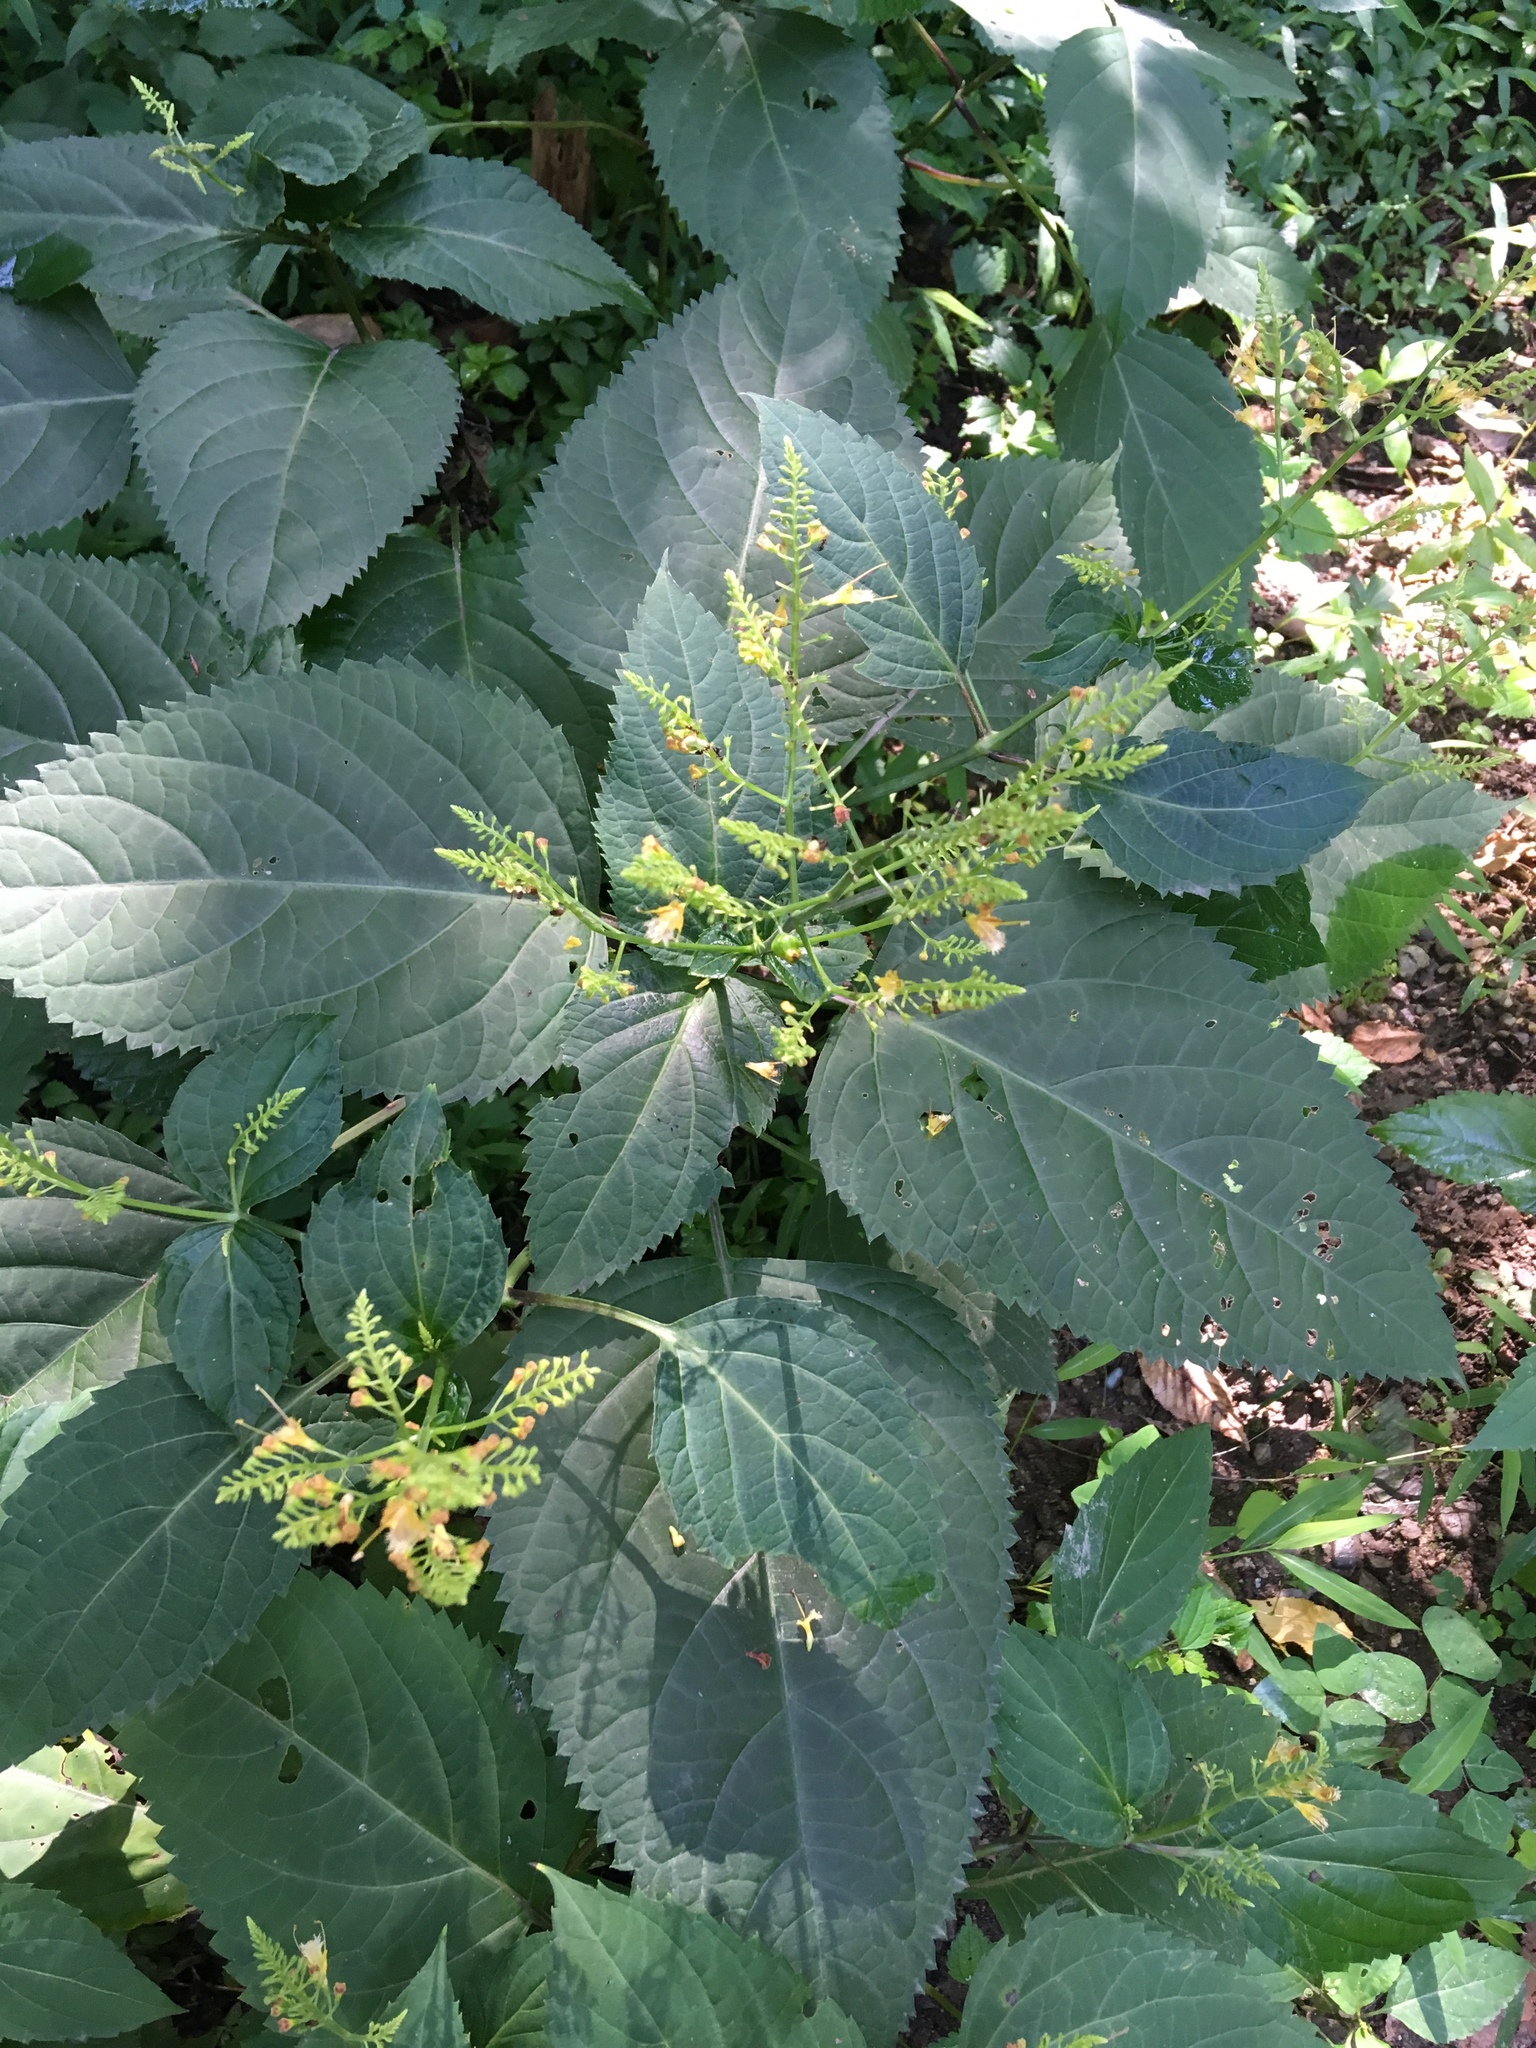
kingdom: Plantae
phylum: Tracheophyta
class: Magnoliopsida
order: Lamiales
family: Lamiaceae
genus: Collinsonia
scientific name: Collinsonia canadensis
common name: Northern horsebalm
